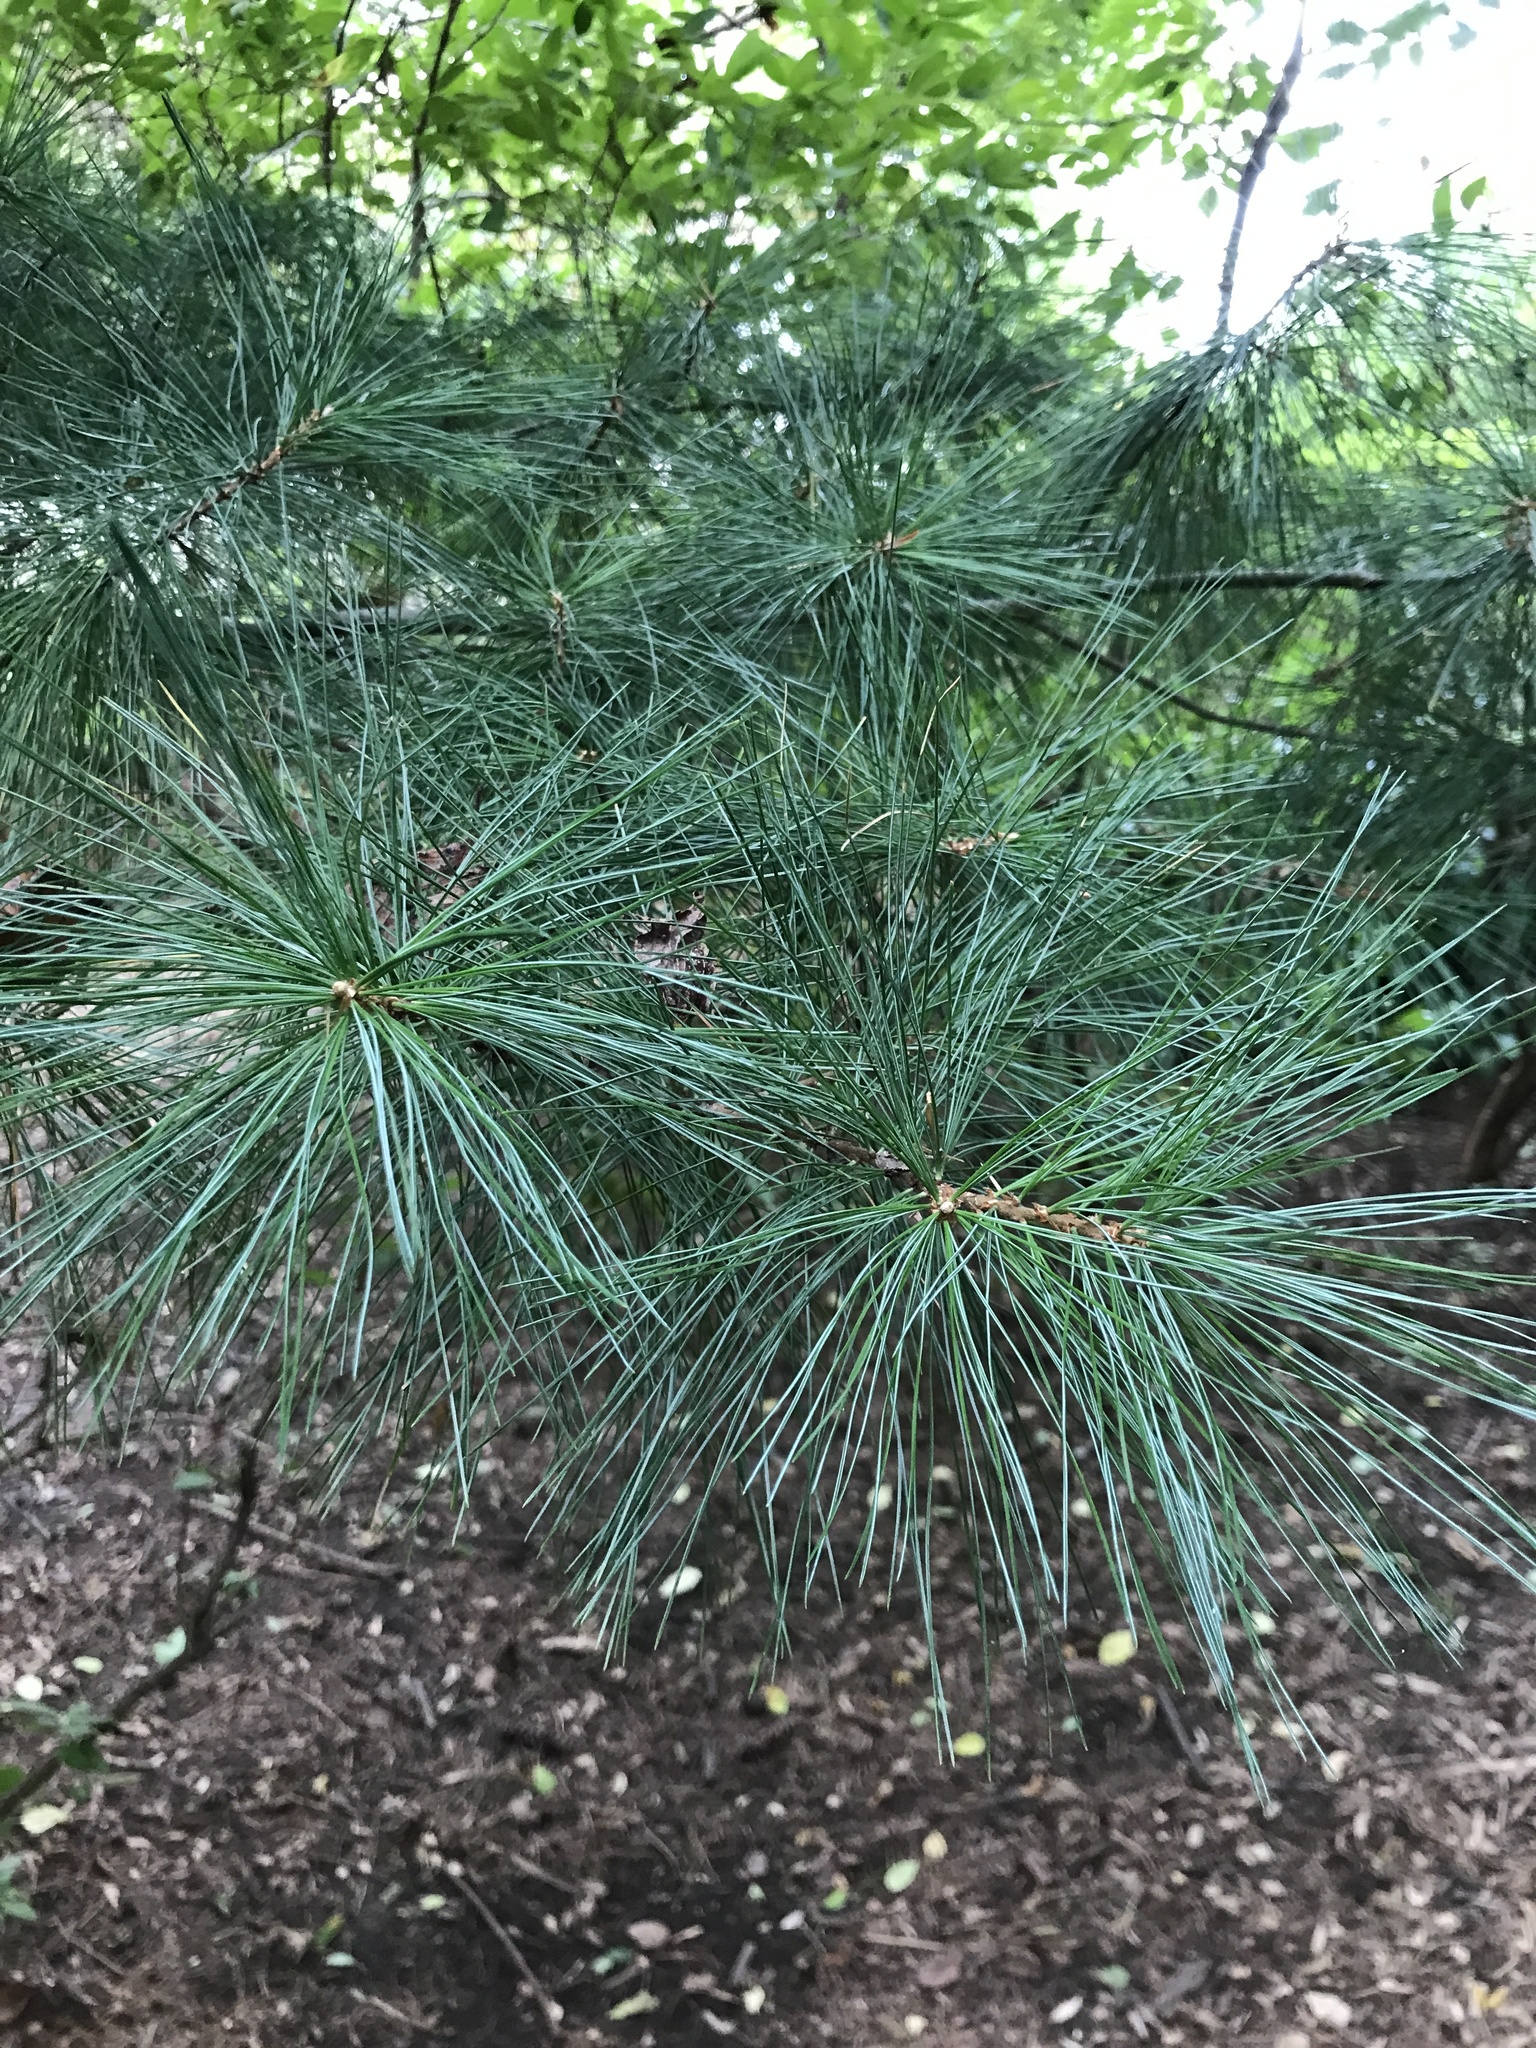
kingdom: Plantae
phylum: Tracheophyta
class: Pinopsida
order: Pinales
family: Pinaceae
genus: Pinus
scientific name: Pinus strobus
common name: Weymouth pine
